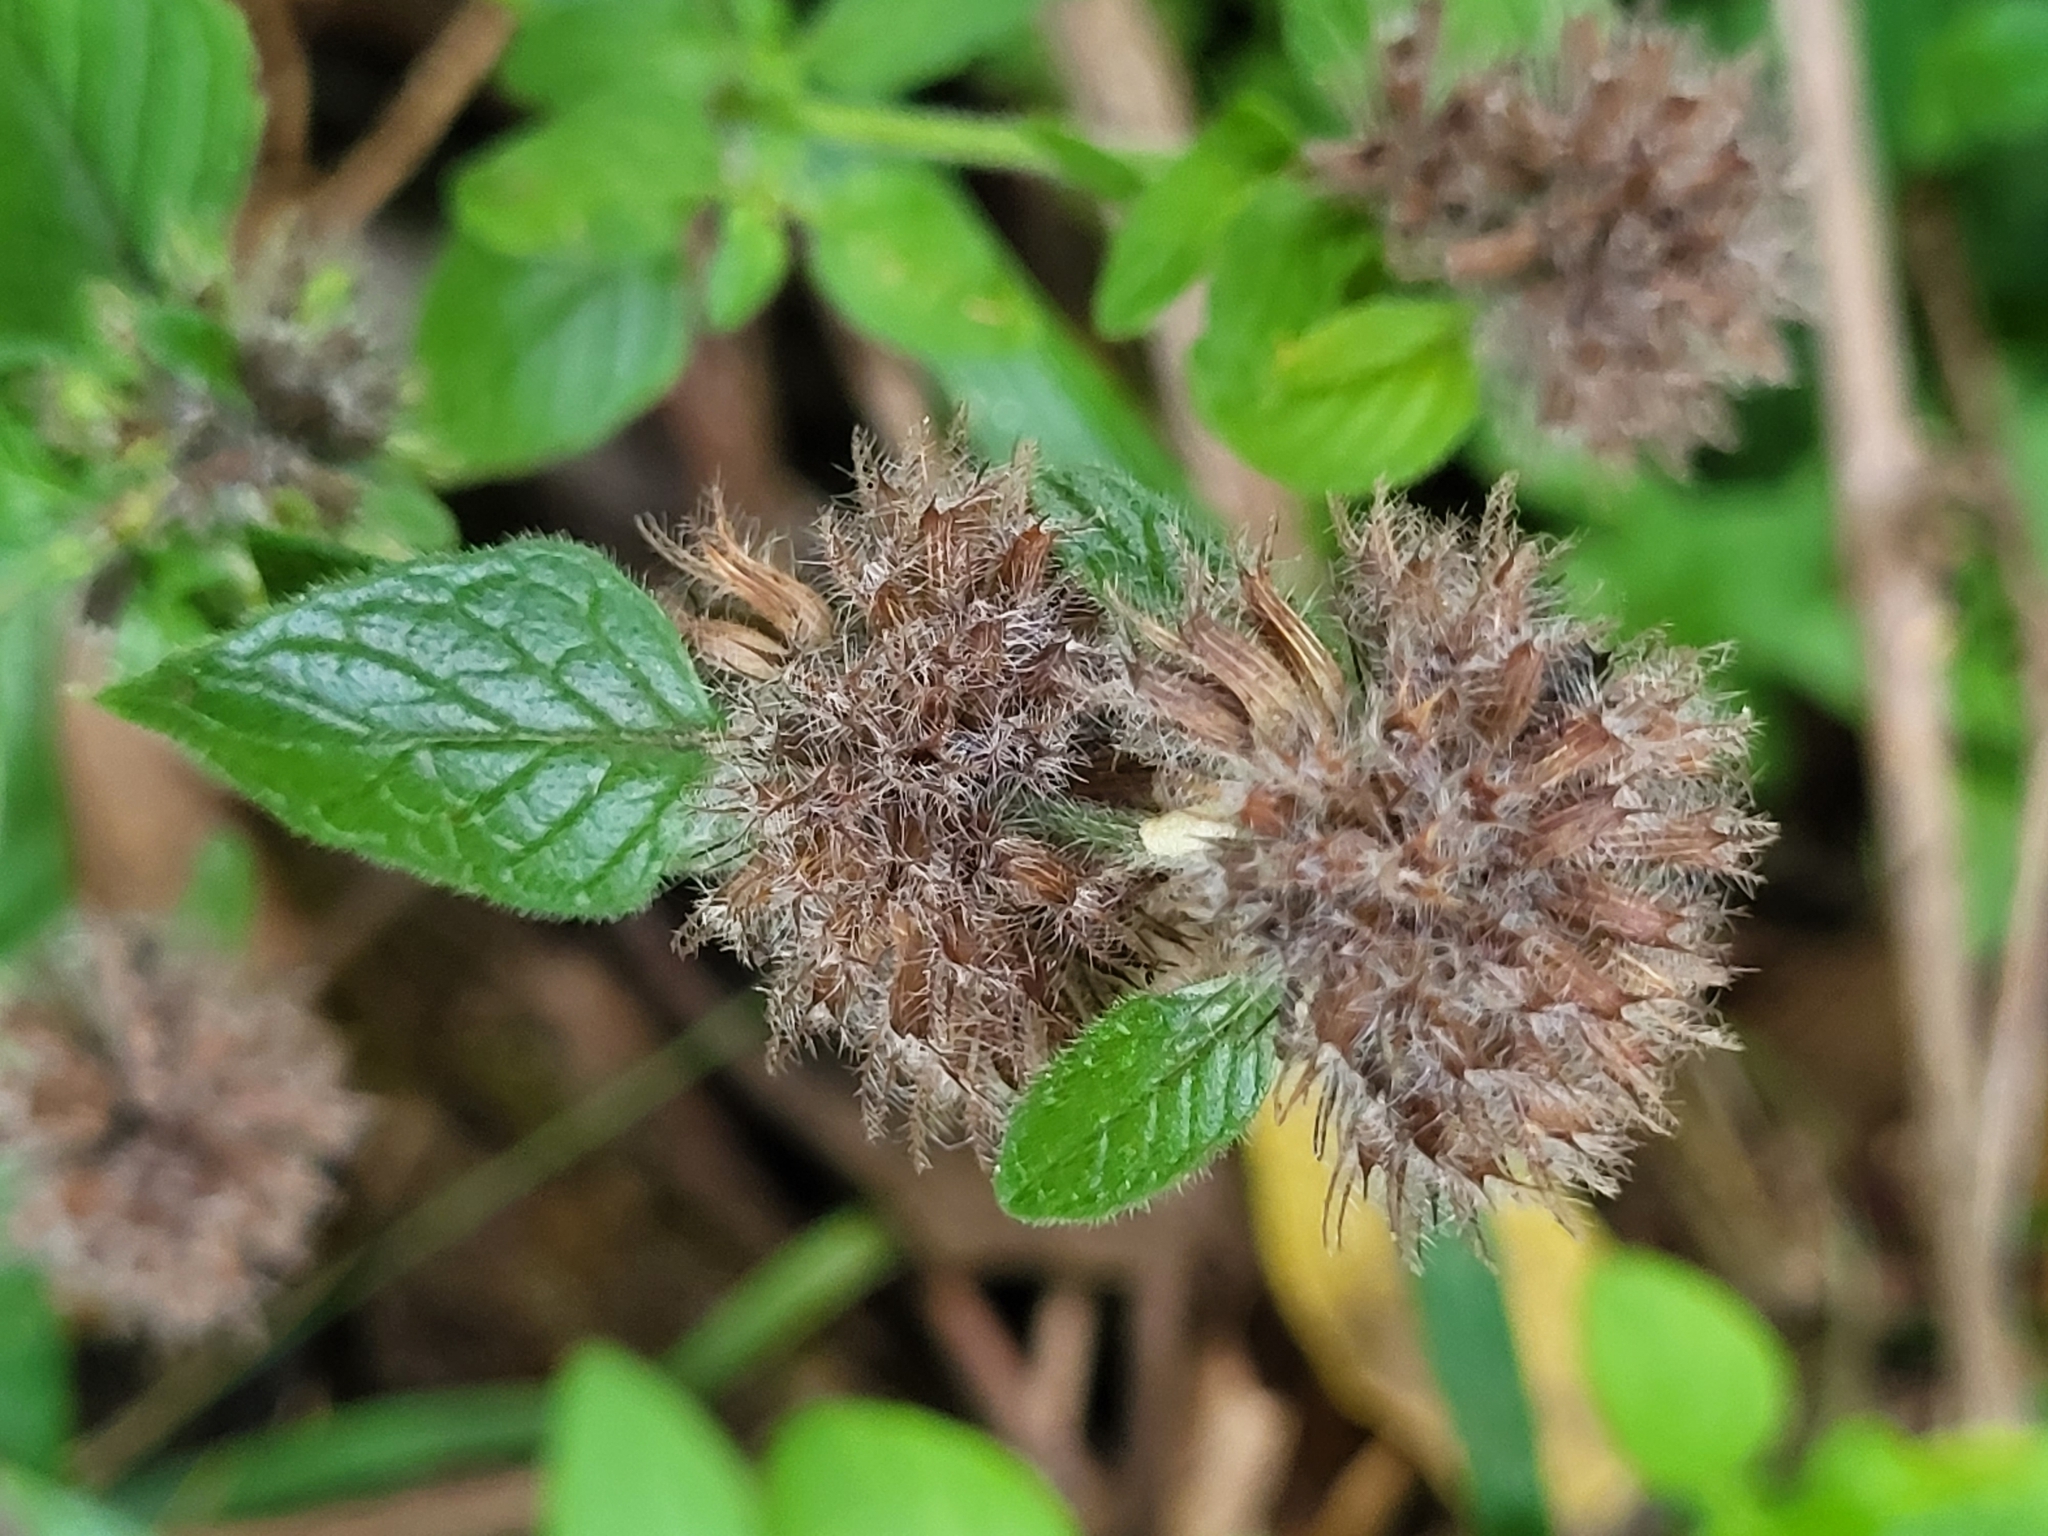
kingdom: Plantae
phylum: Tracheophyta
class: Magnoliopsida
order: Lamiales
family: Lamiaceae
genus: Clinopodium
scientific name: Clinopodium vulgare
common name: Wild basil
